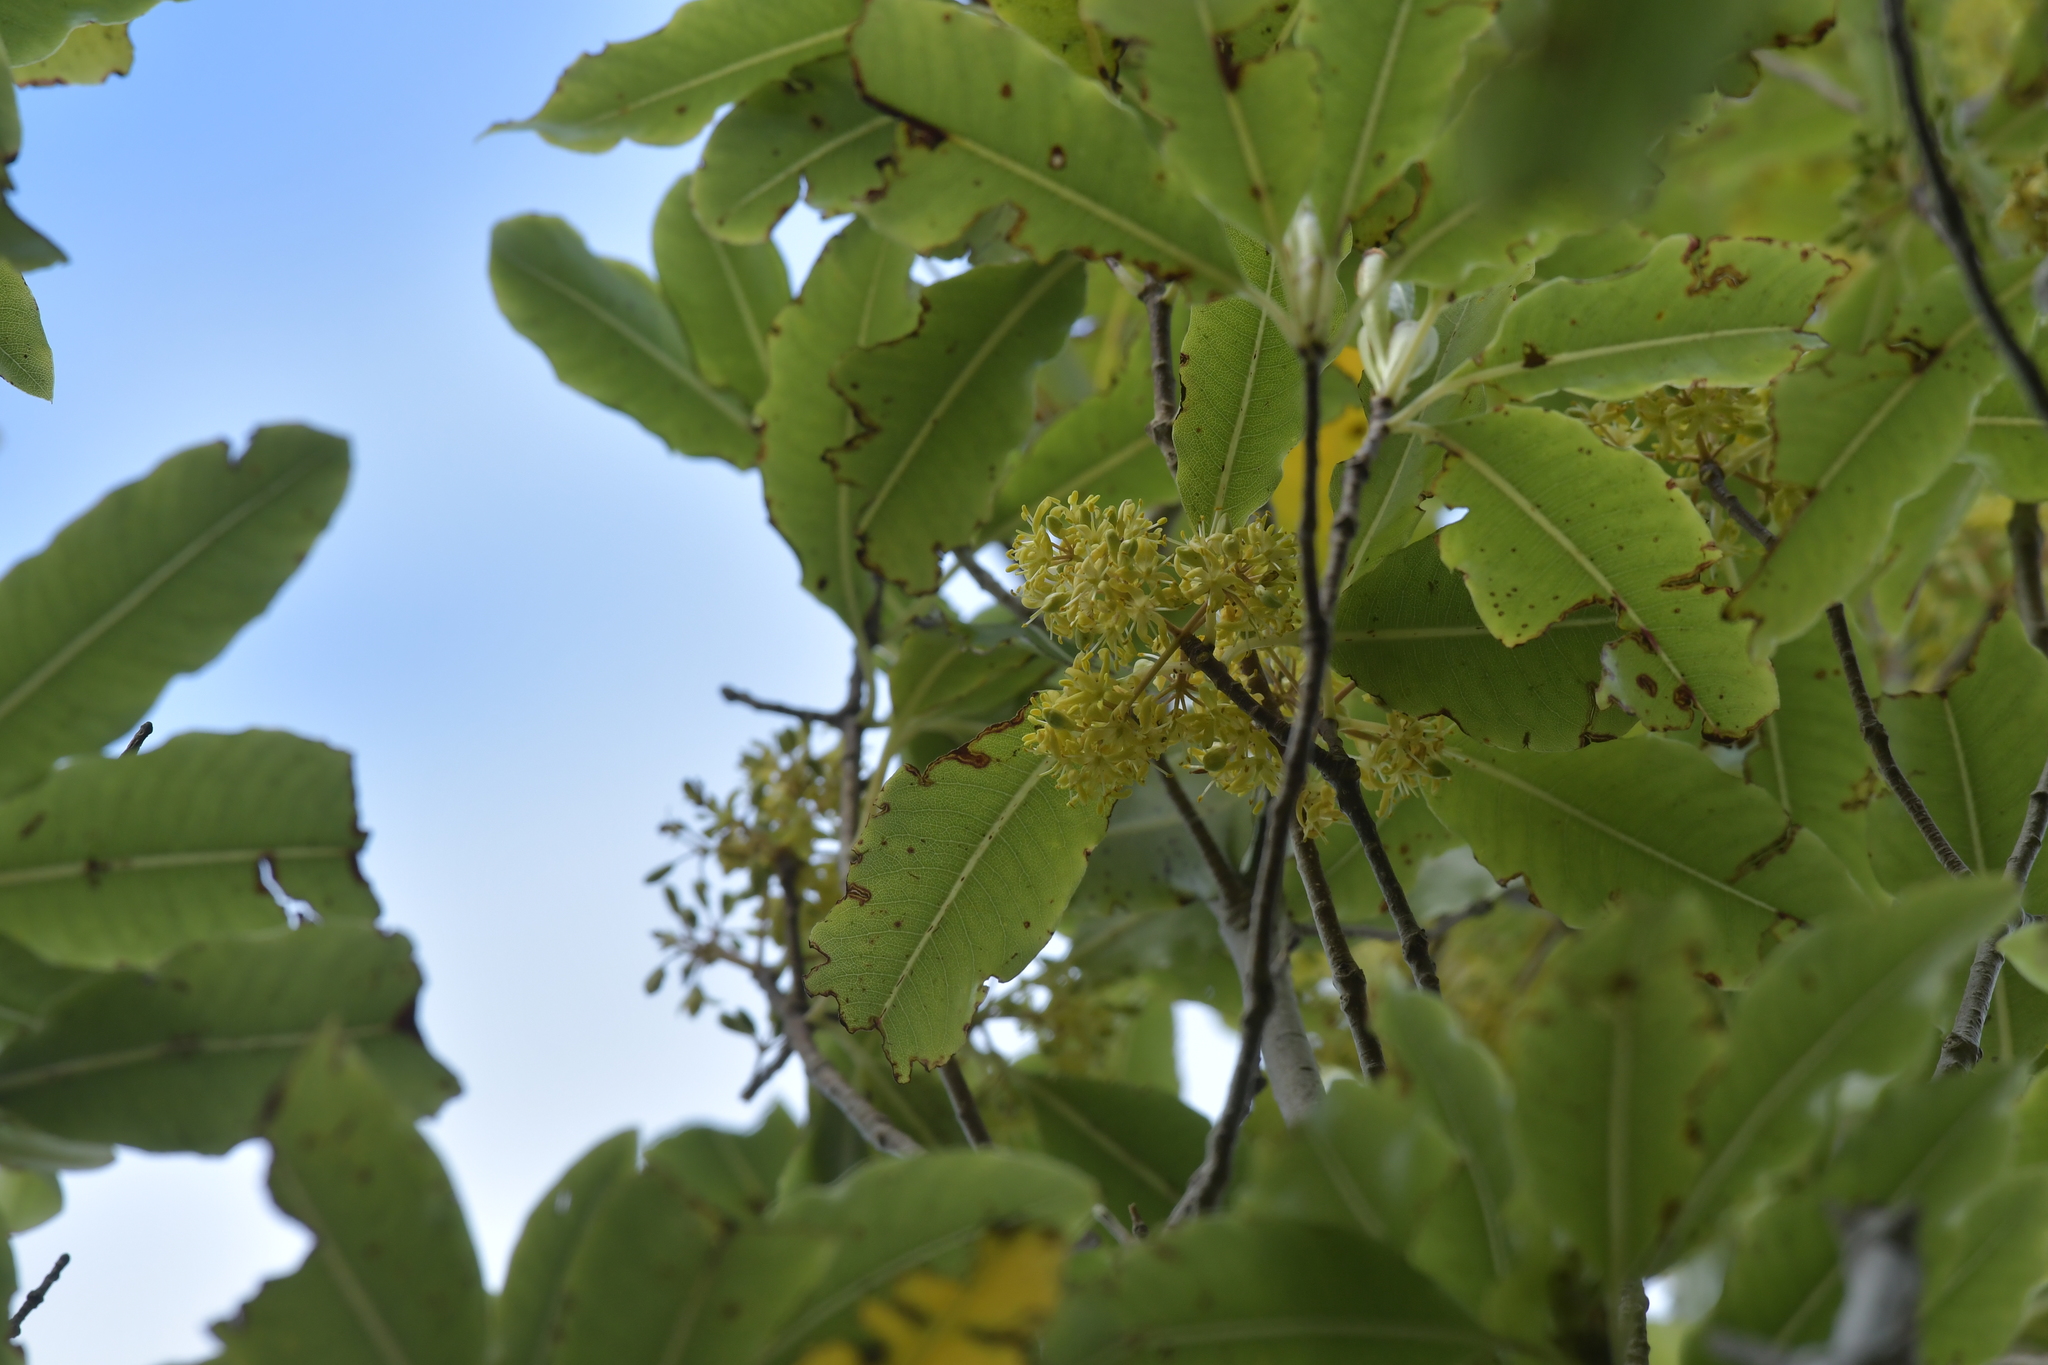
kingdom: Plantae
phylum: Tracheophyta
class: Magnoliopsida
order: Apiales
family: Pittosporaceae
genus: Pittosporum
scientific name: Pittosporum eugenioides
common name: Lemonwood
